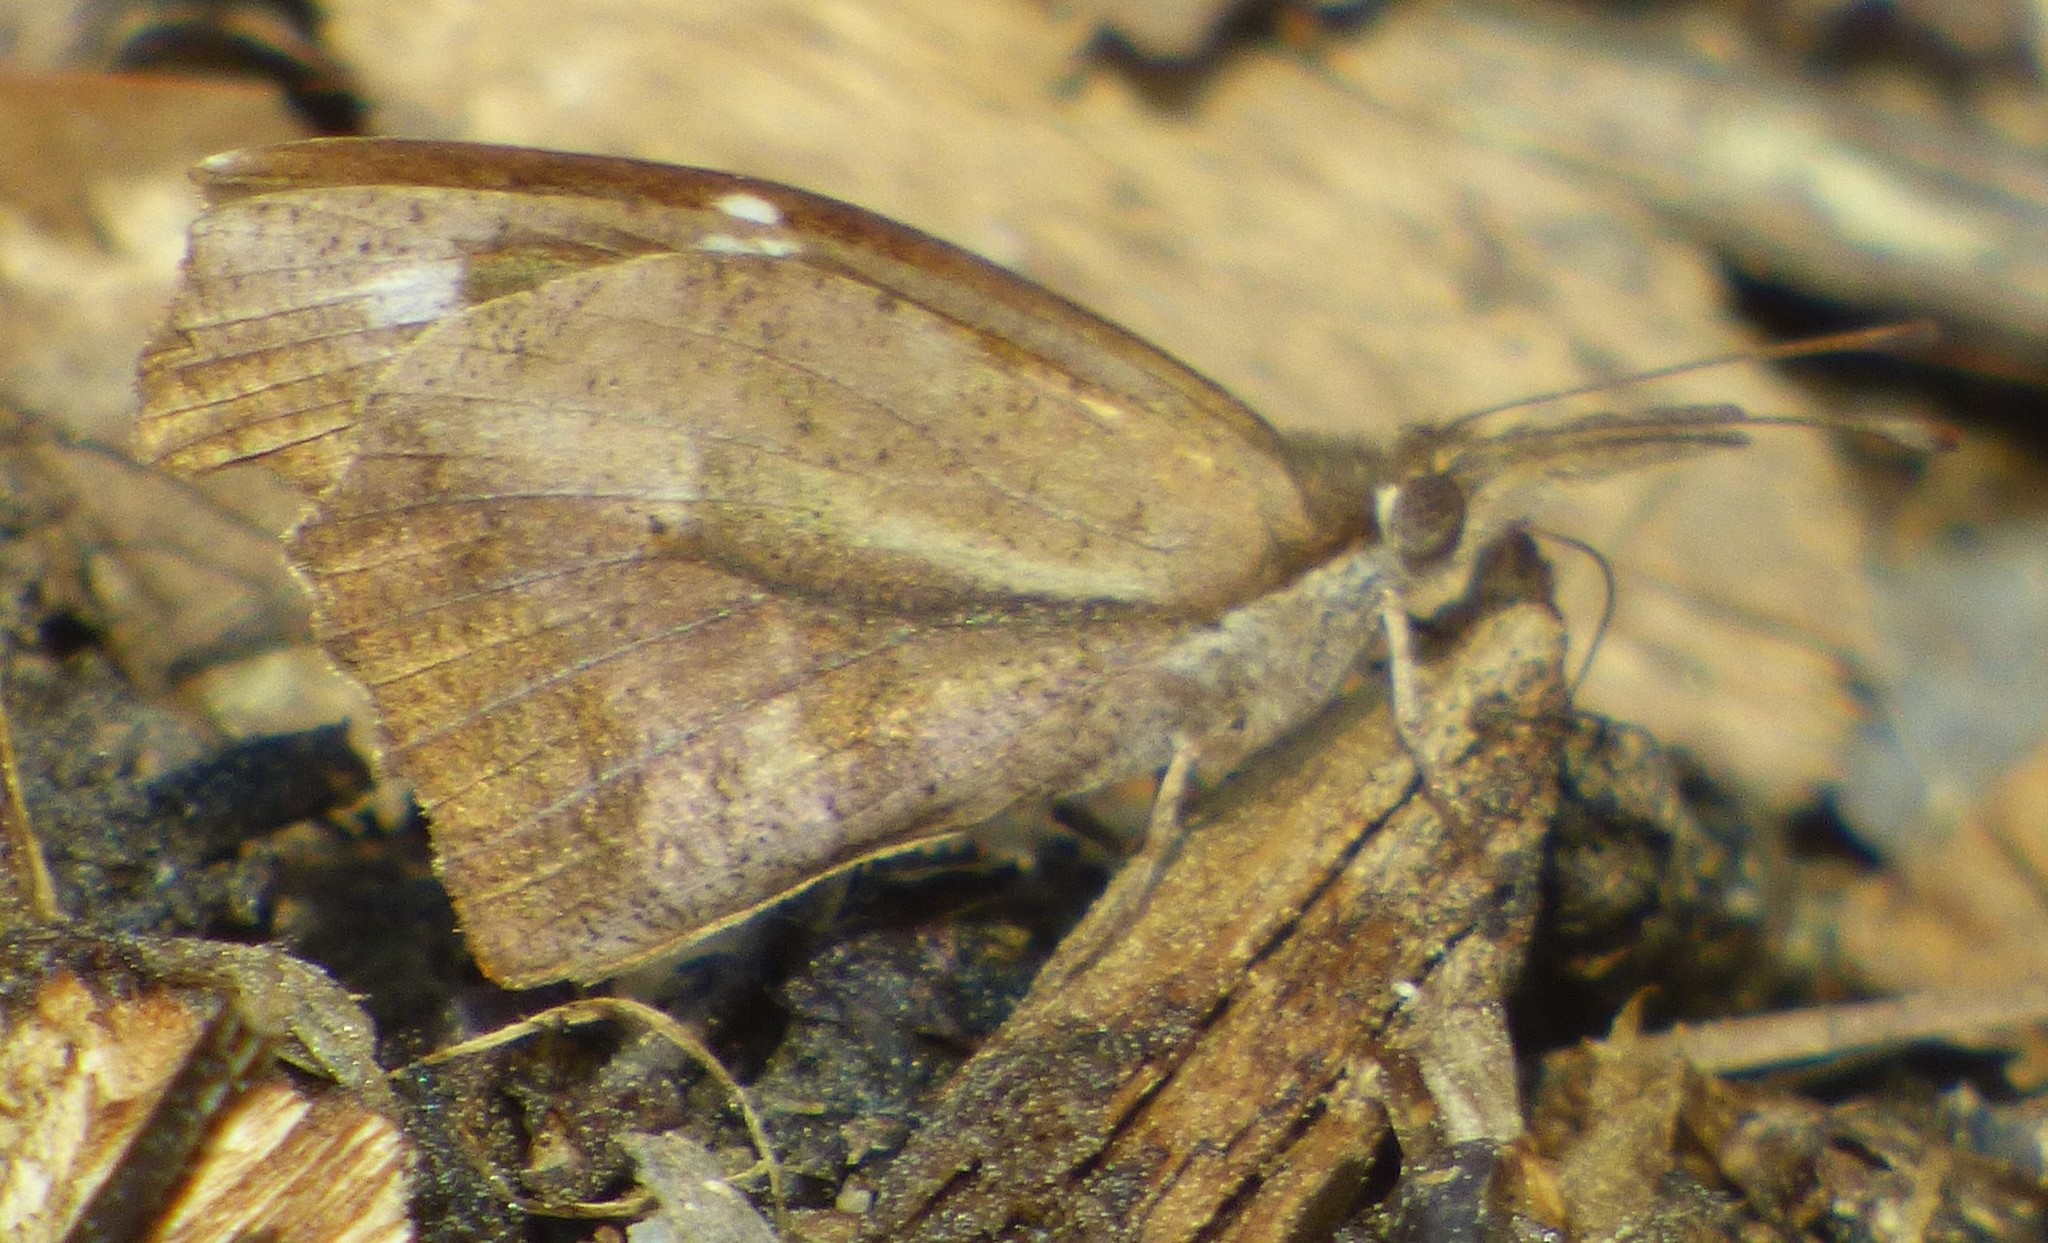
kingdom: Animalia
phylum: Arthropoda
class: Insecta
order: Lepidoptera
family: Nymphalidae
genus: Libytheana
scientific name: Libytheana carinenta
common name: American snout
